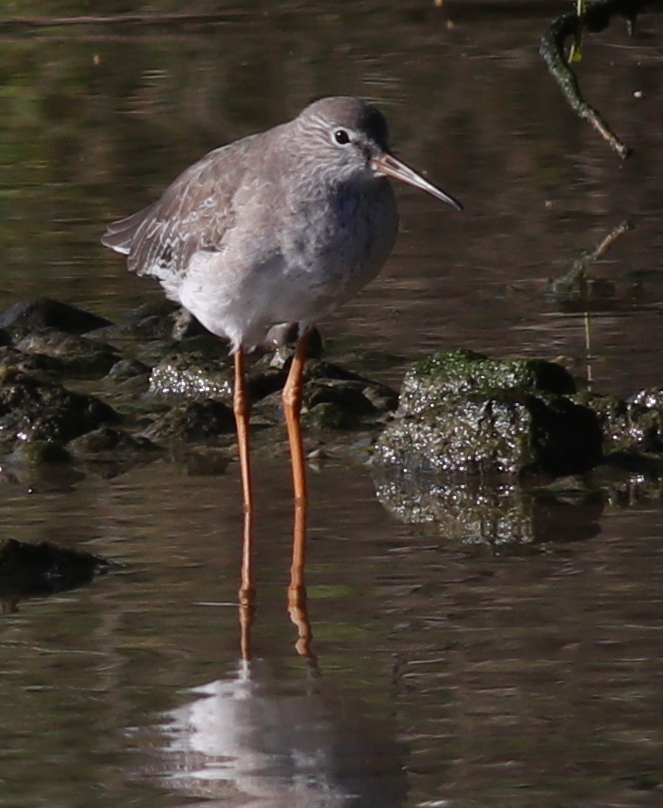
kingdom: Animalia
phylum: Chordata
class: Aves
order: Charadriiformes
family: Scolopacidae
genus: Tringa
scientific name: Tringa totanus
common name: Common redshank
